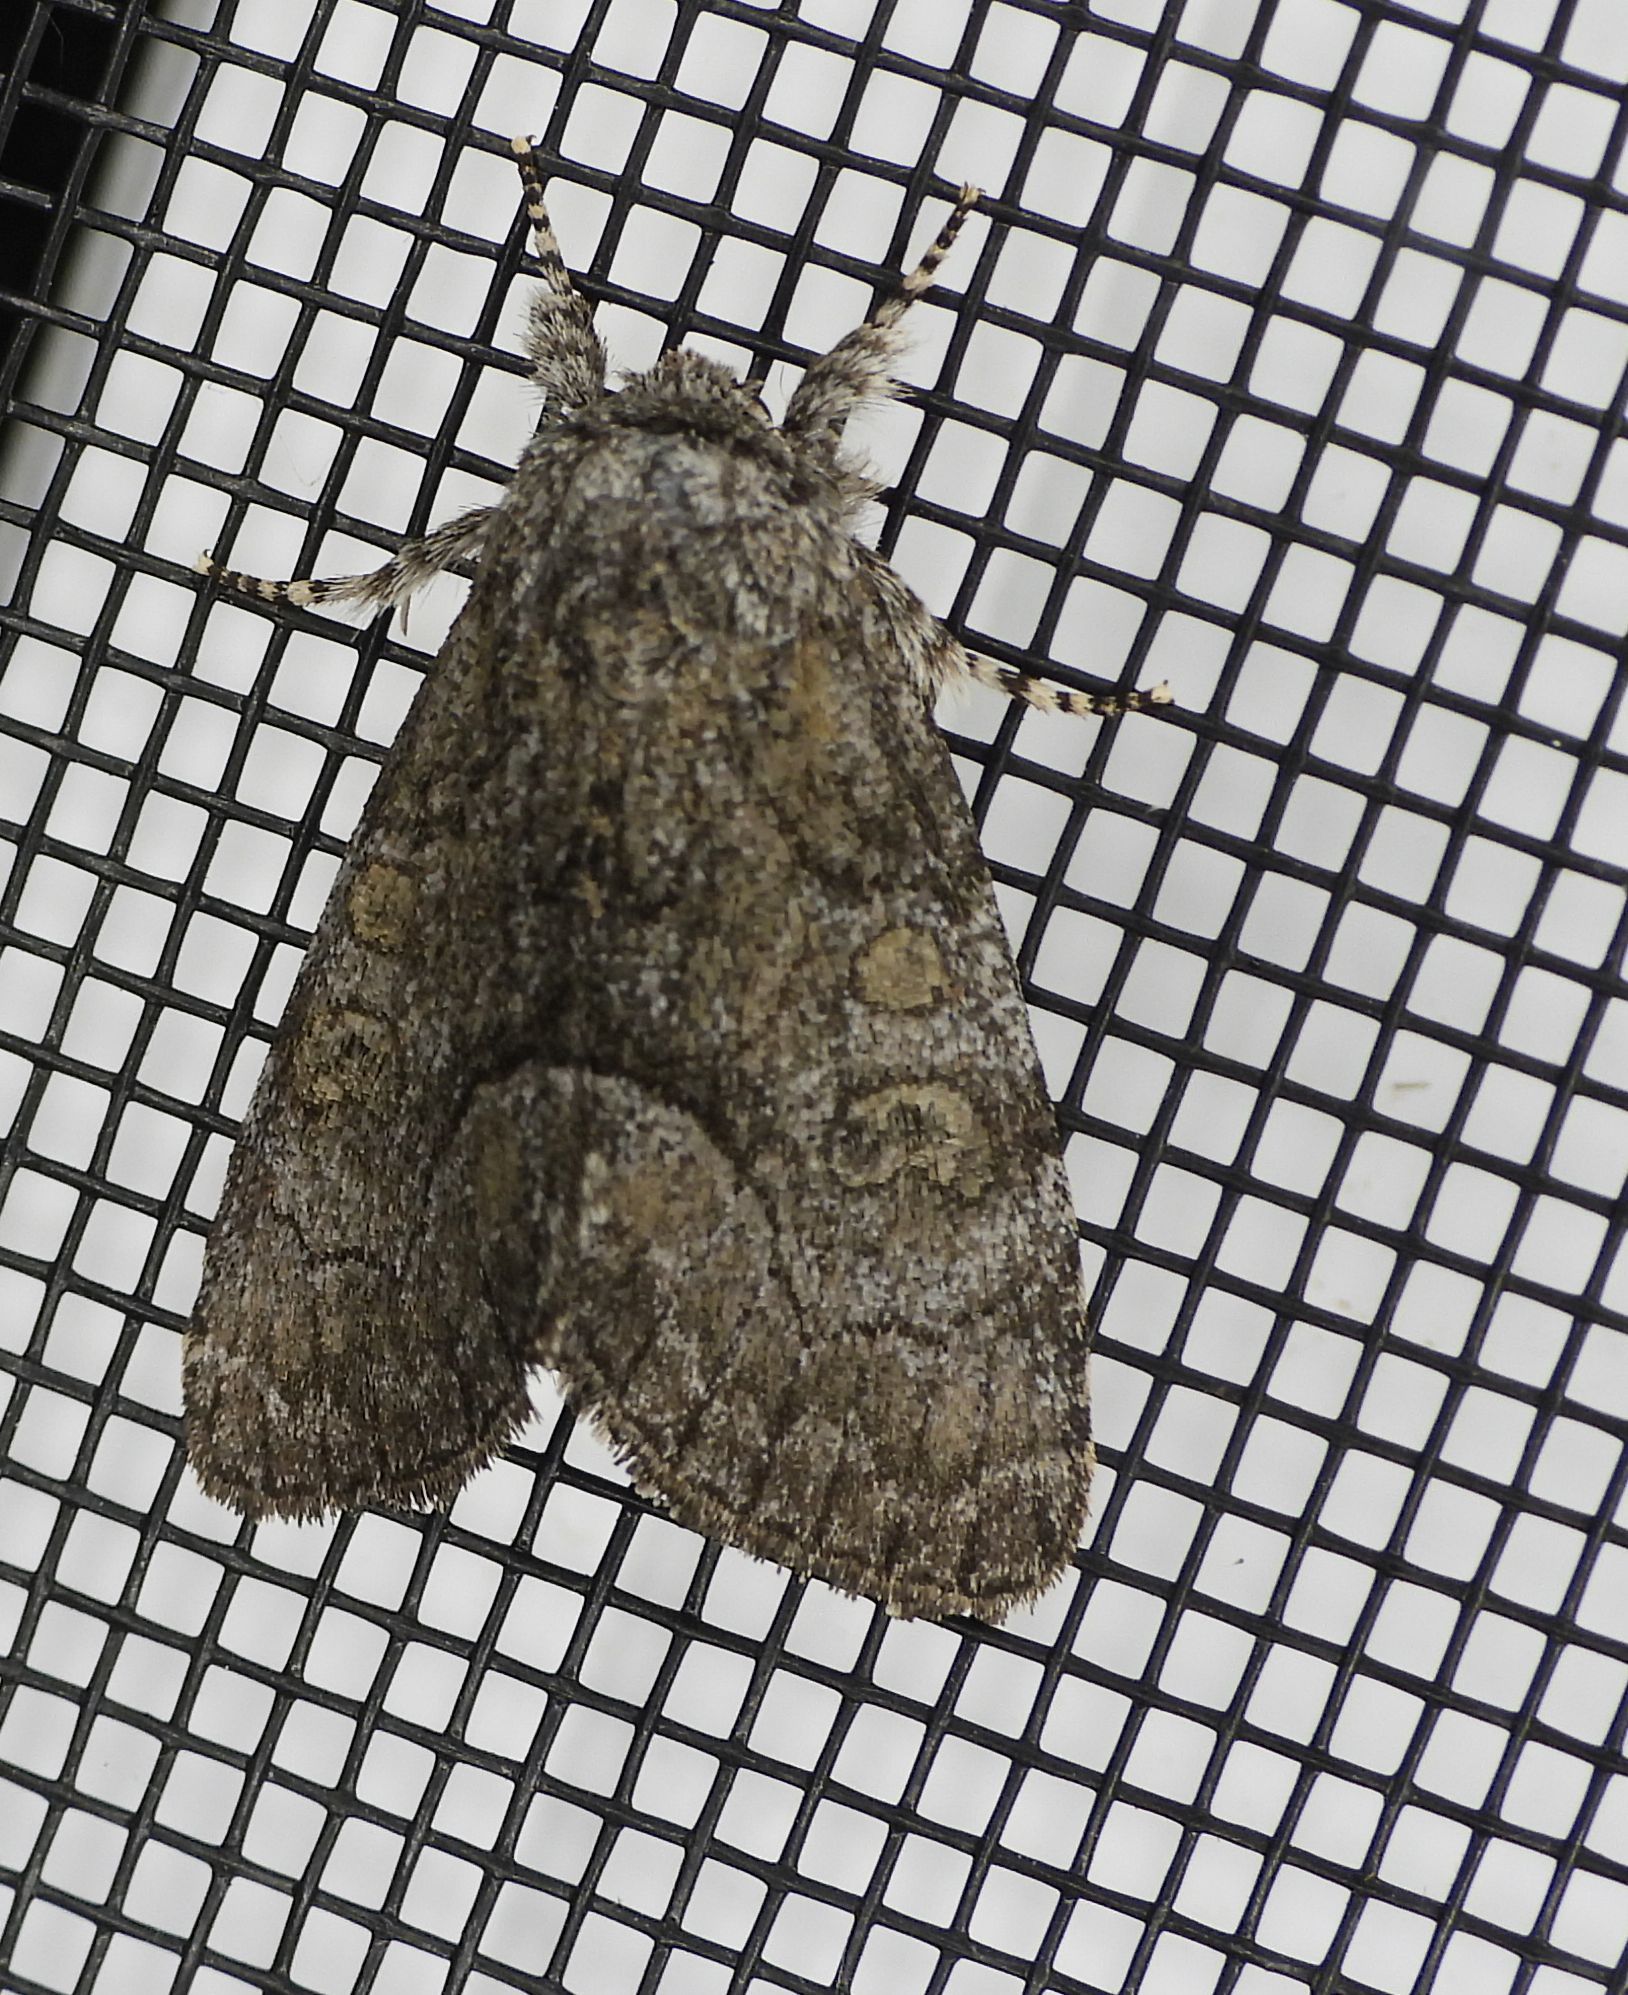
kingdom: Animalia
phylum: Arthropoda
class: Insecta
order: Lepidoptera
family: Noctuidae
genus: Raphia
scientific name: Raphia frater
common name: Brother
